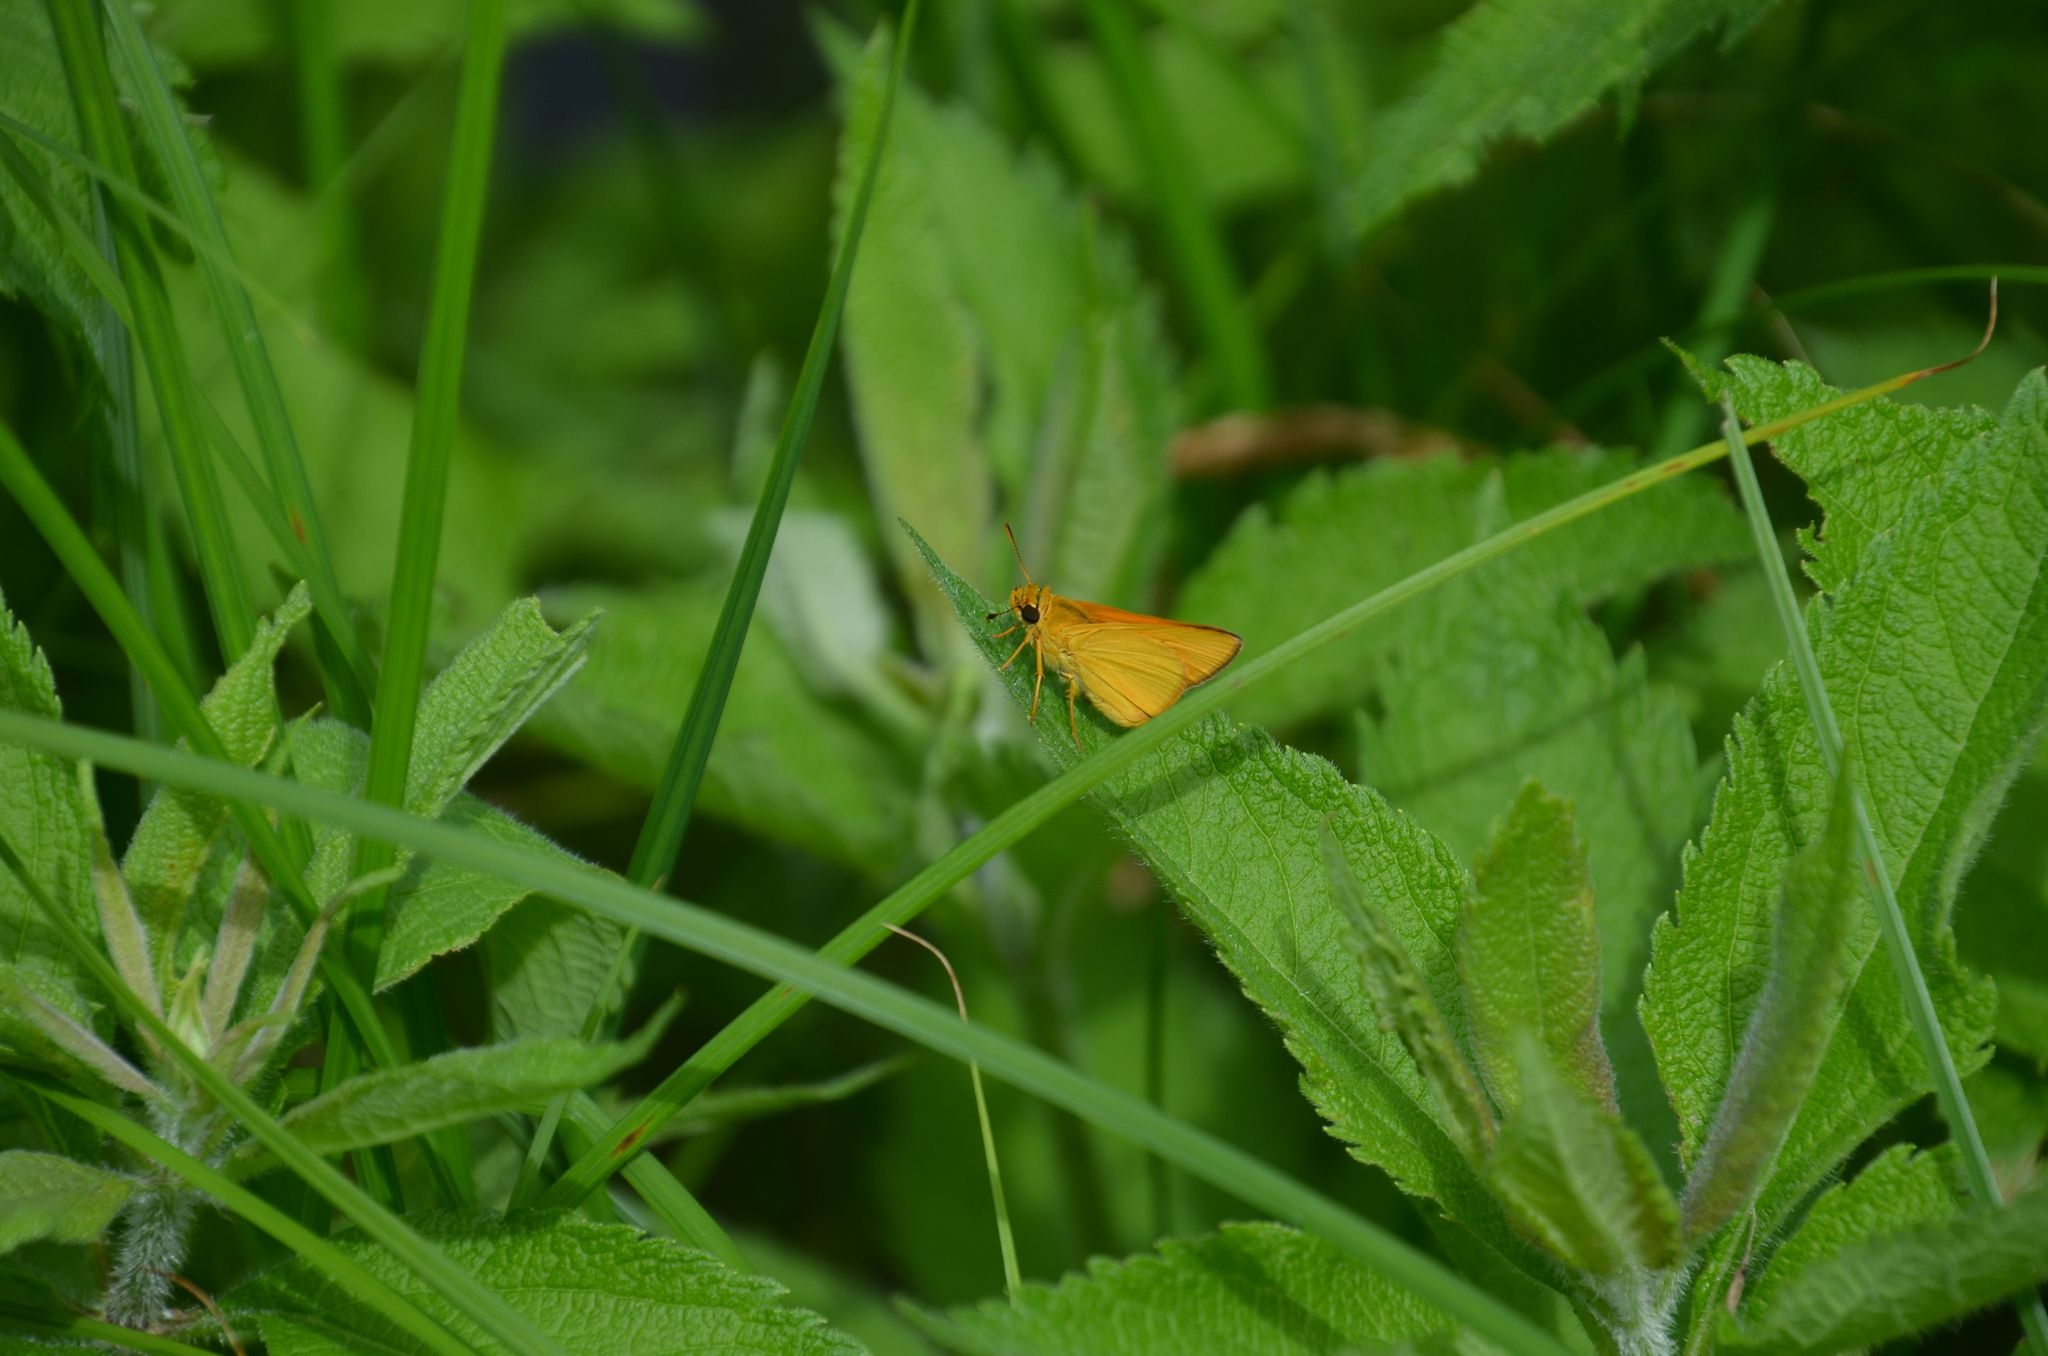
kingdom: Animalia
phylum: Arthropoda
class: Insecta
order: Lepidoptera
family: Hesperiidae
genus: Atrytone
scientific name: Atrytone delaware
